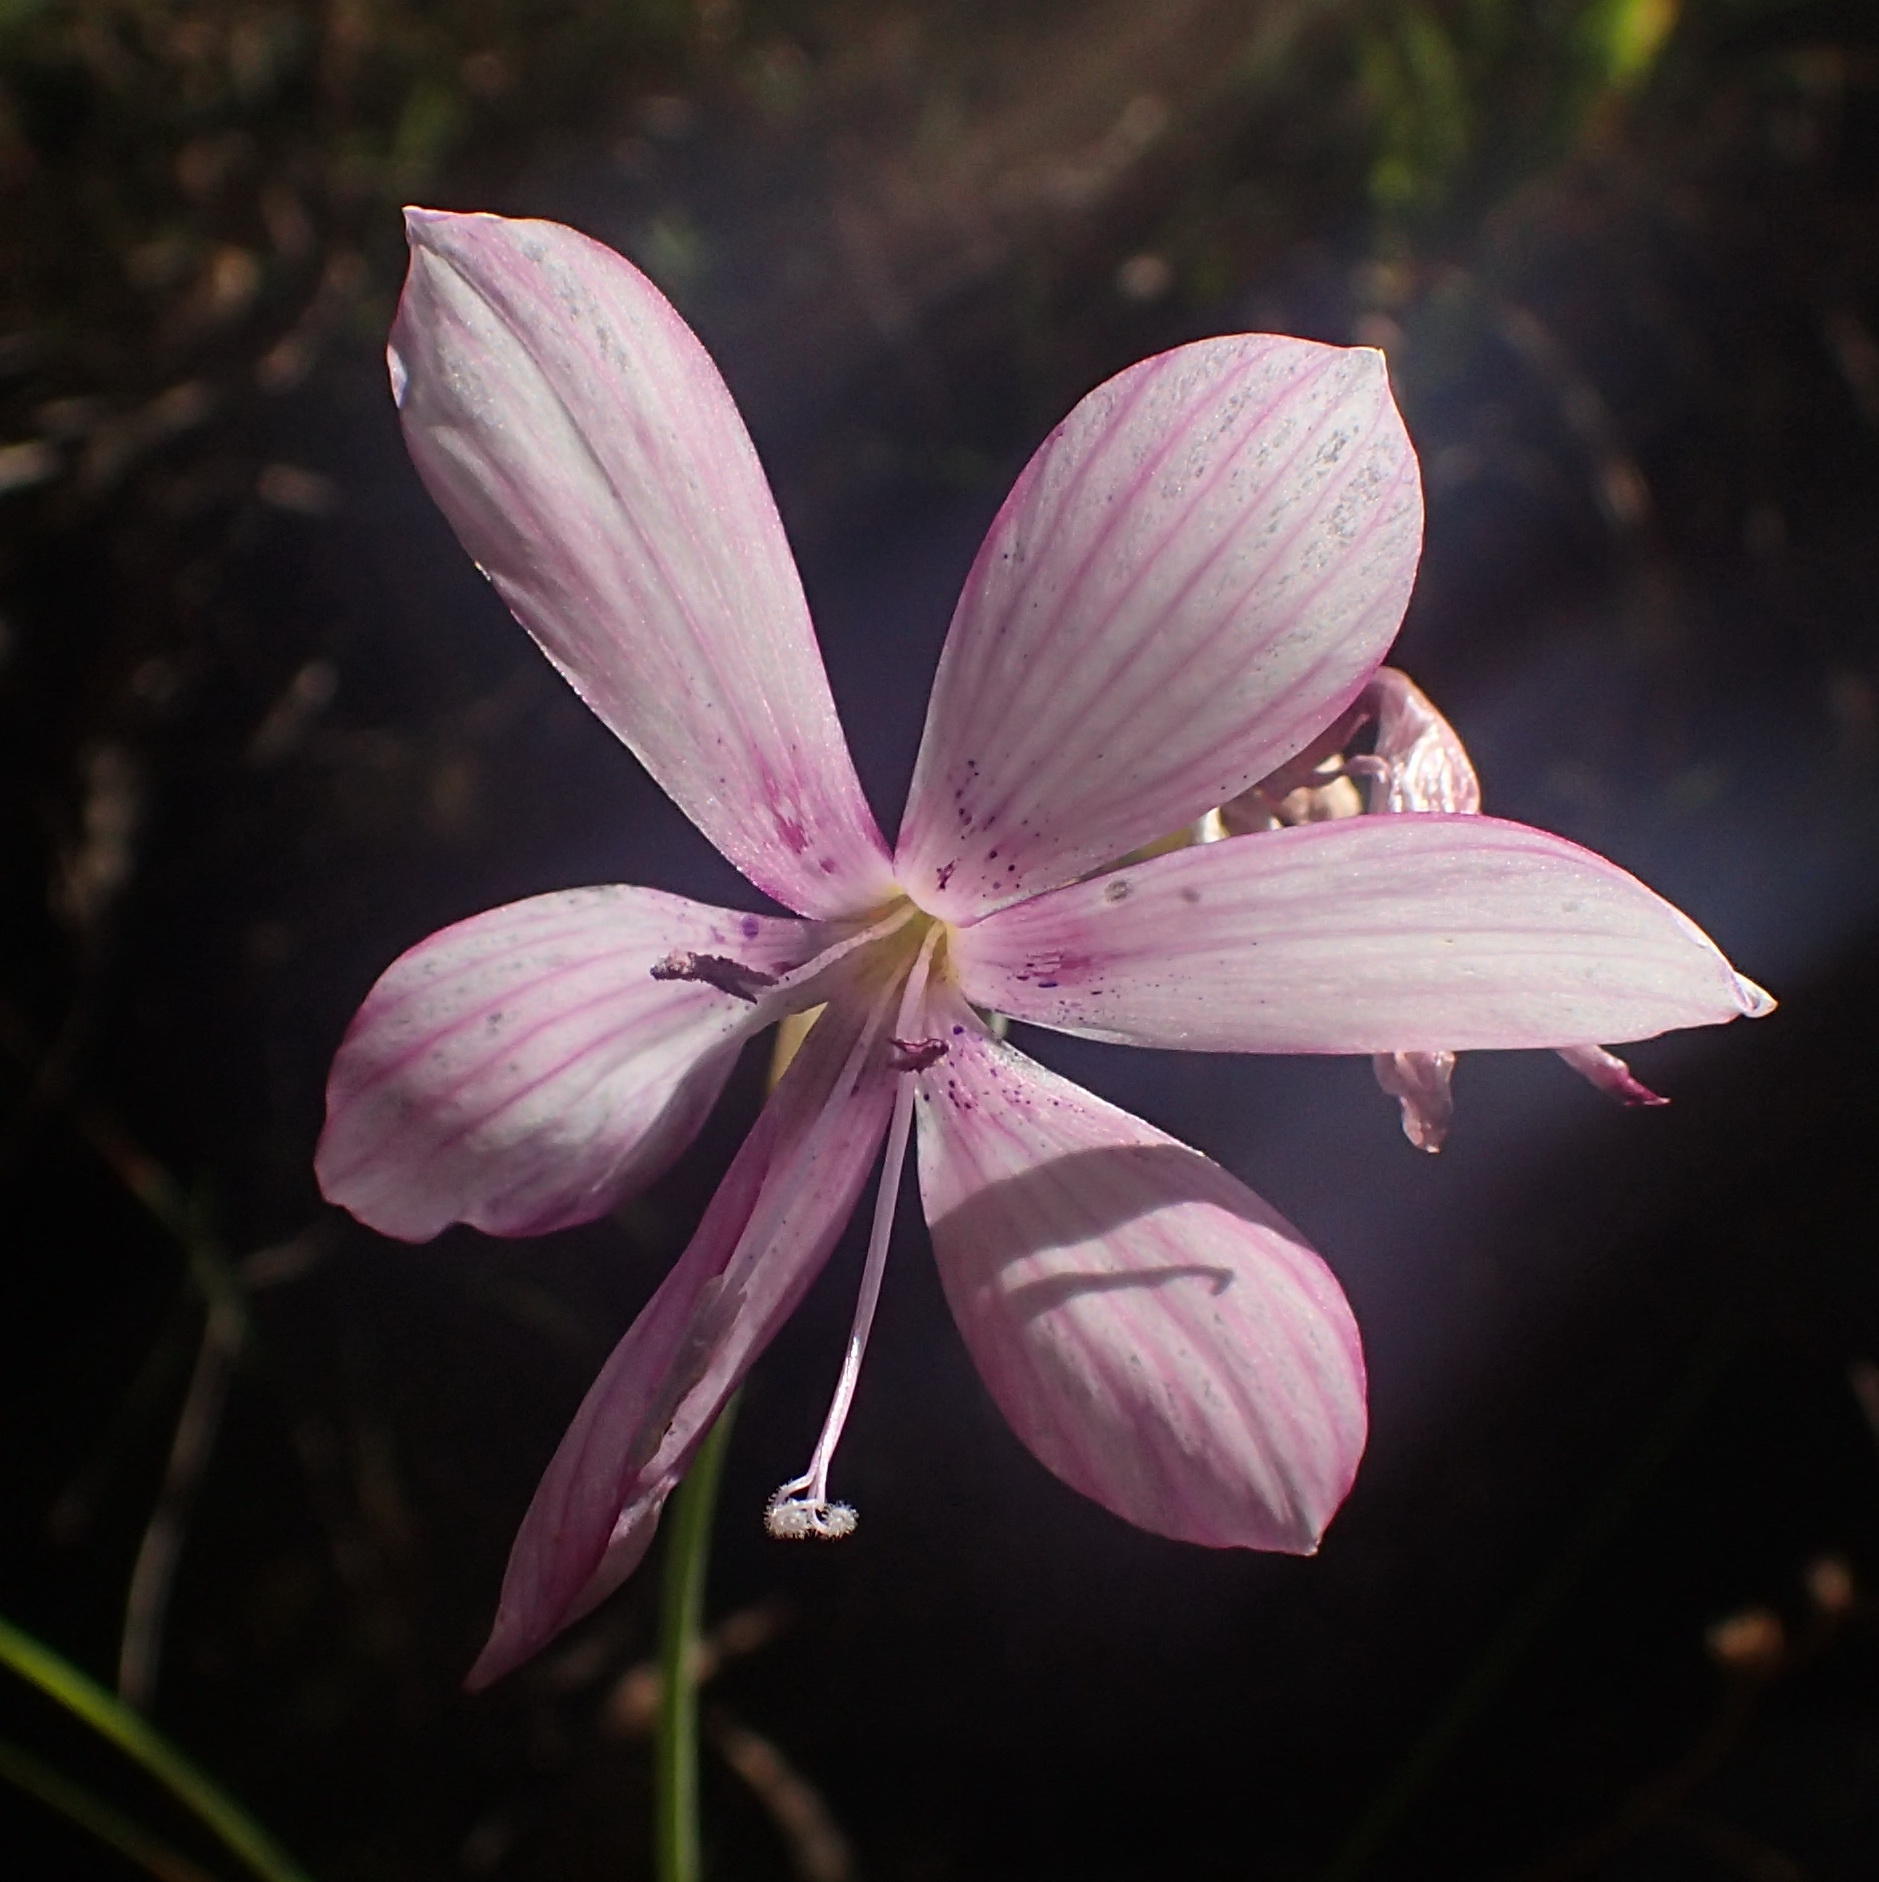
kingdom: Plantae
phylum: Tracheophyta
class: Liliopsida
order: Asparagales
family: Iridaceae
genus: Geissorhiza
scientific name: Geissorhiza outeniquensis
